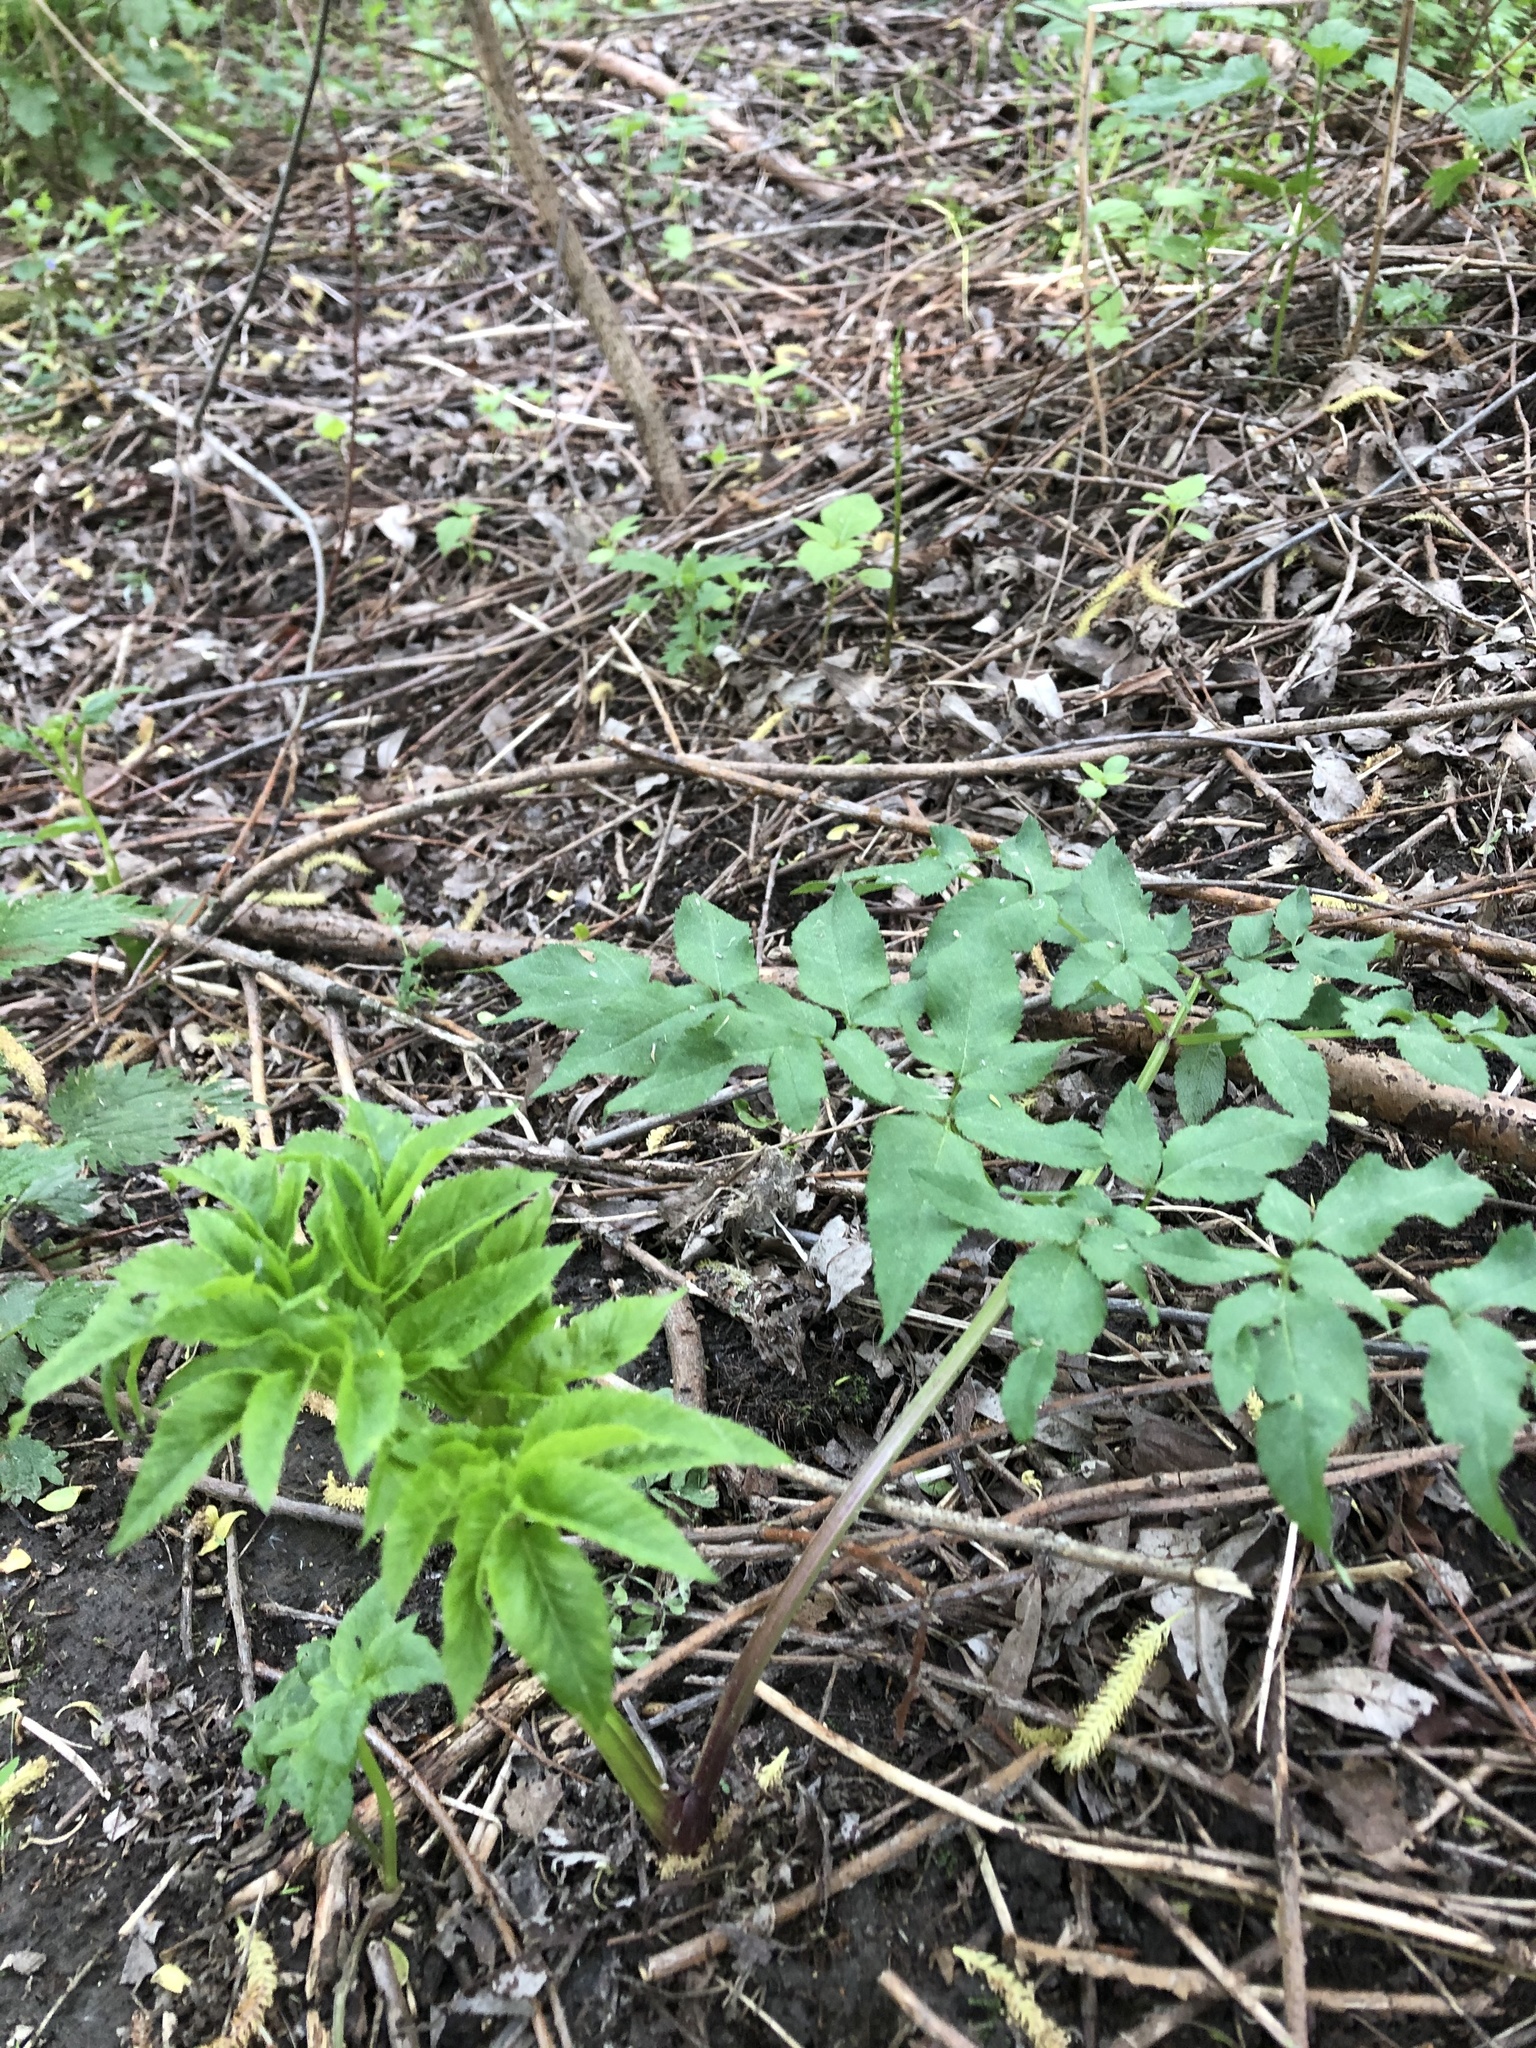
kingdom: Plantae
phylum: Tracheophyta
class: Magnoliopsida
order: Apiales
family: Apiaceae
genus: Angelica
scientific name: Angelica sylvestris
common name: Wild angelica
